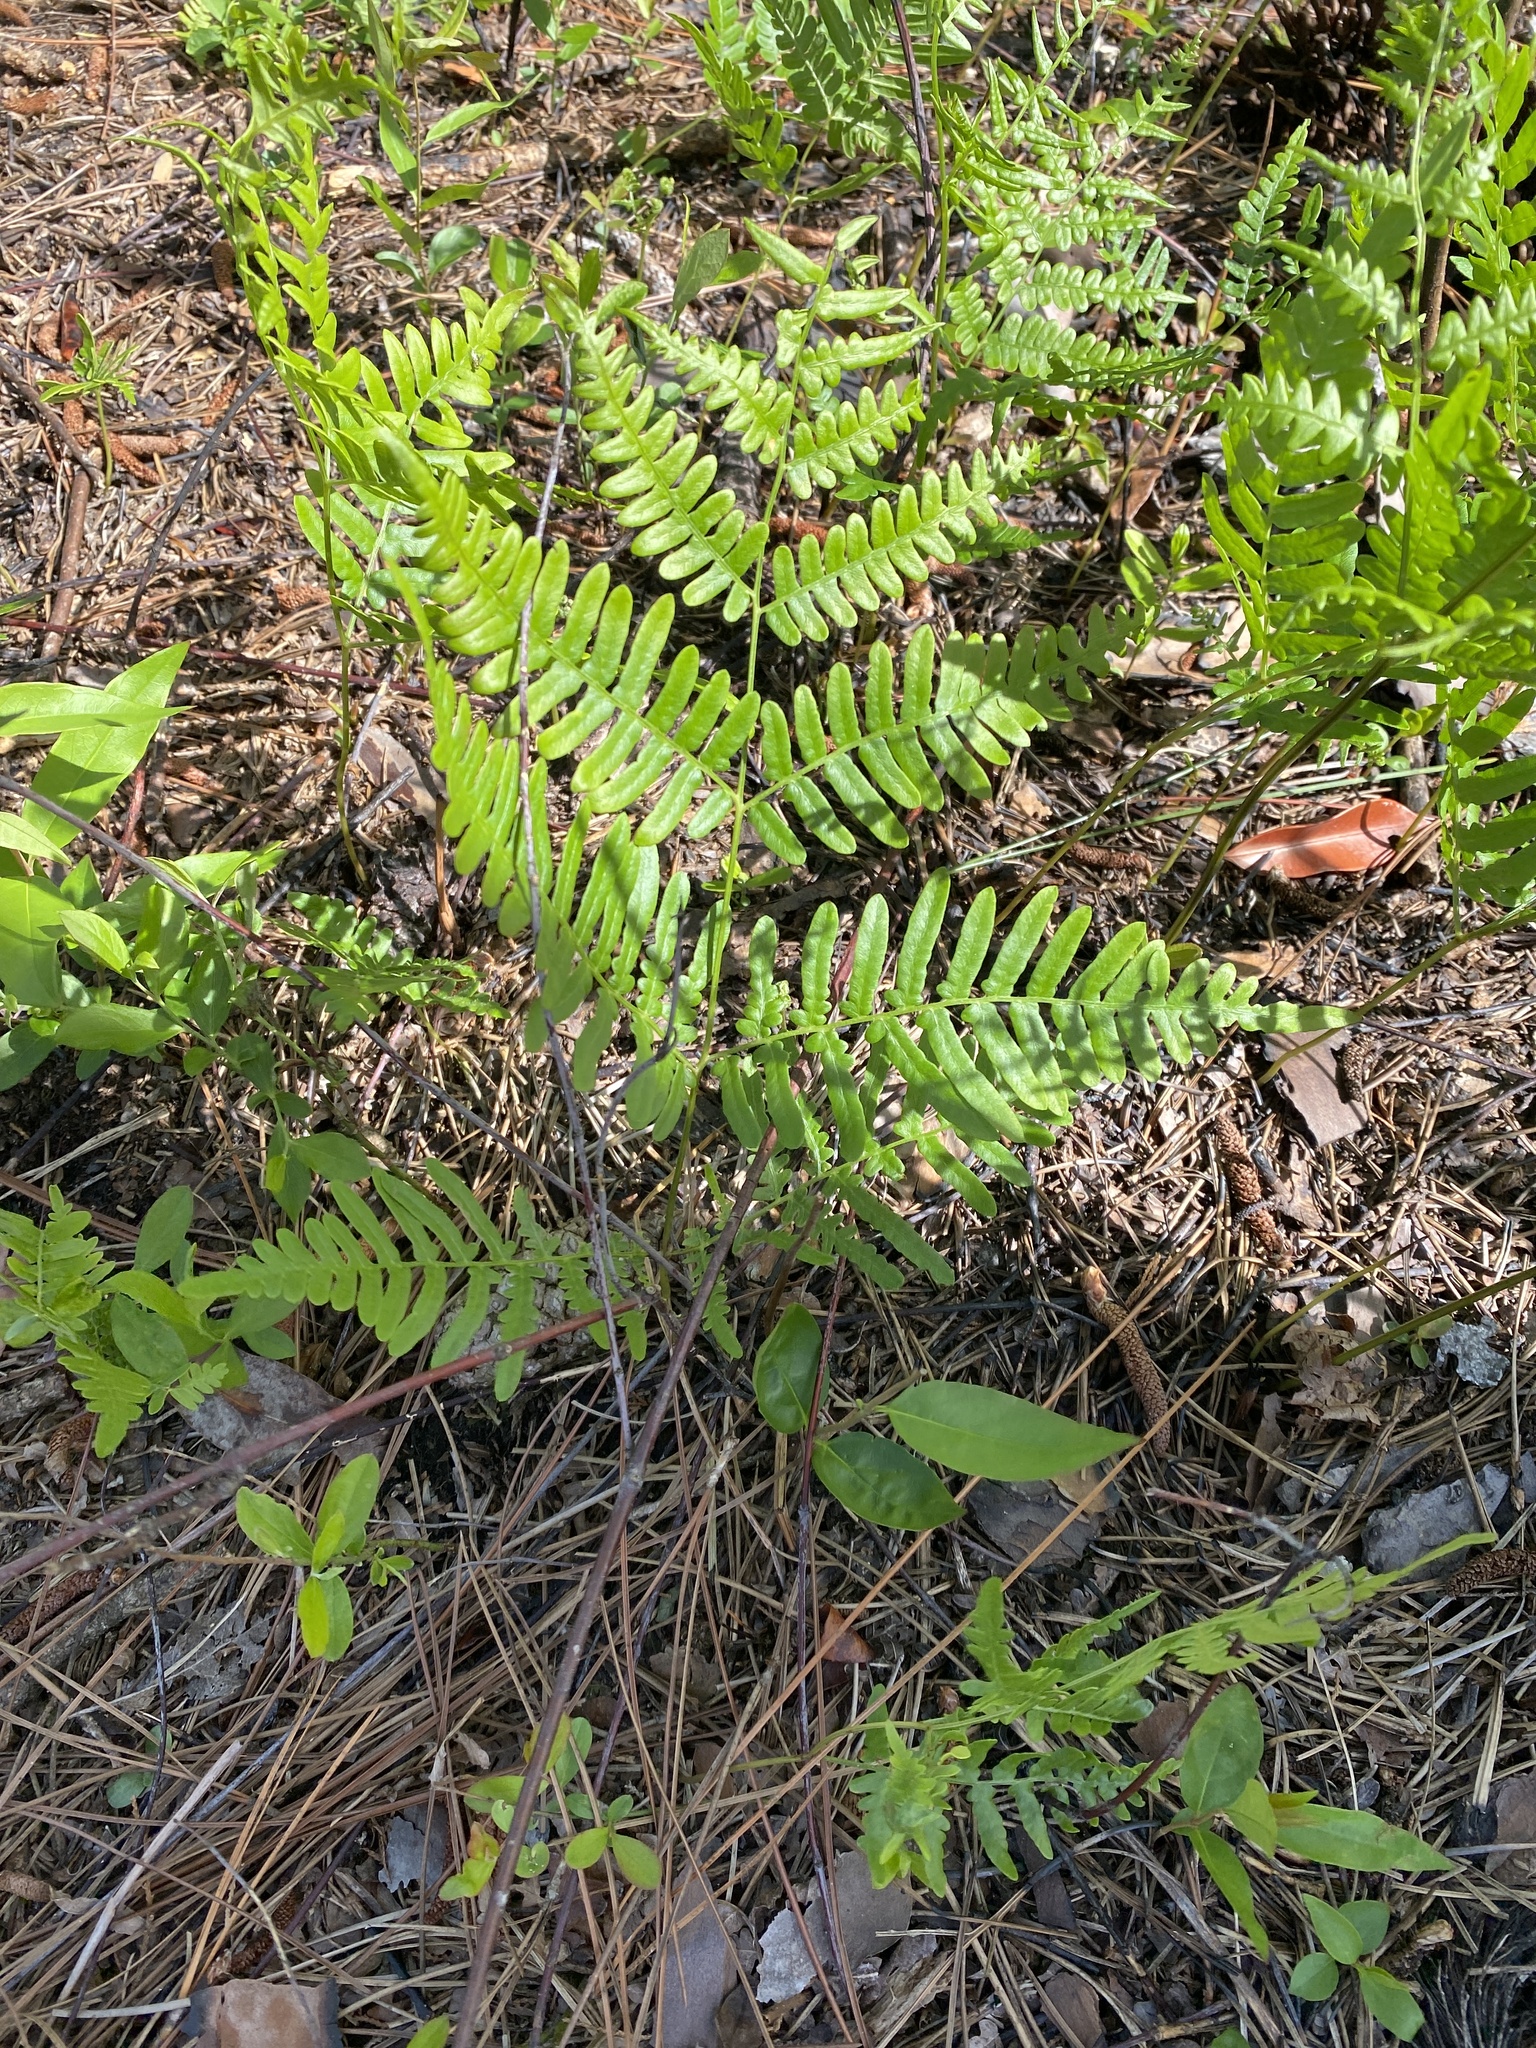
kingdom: Plantae
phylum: Tracheophyta
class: Polypodiopsida
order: Polypodiales
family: Dennstaedtiaceae
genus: Pteridium
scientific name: Pteridium aquilinum
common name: Bracken
